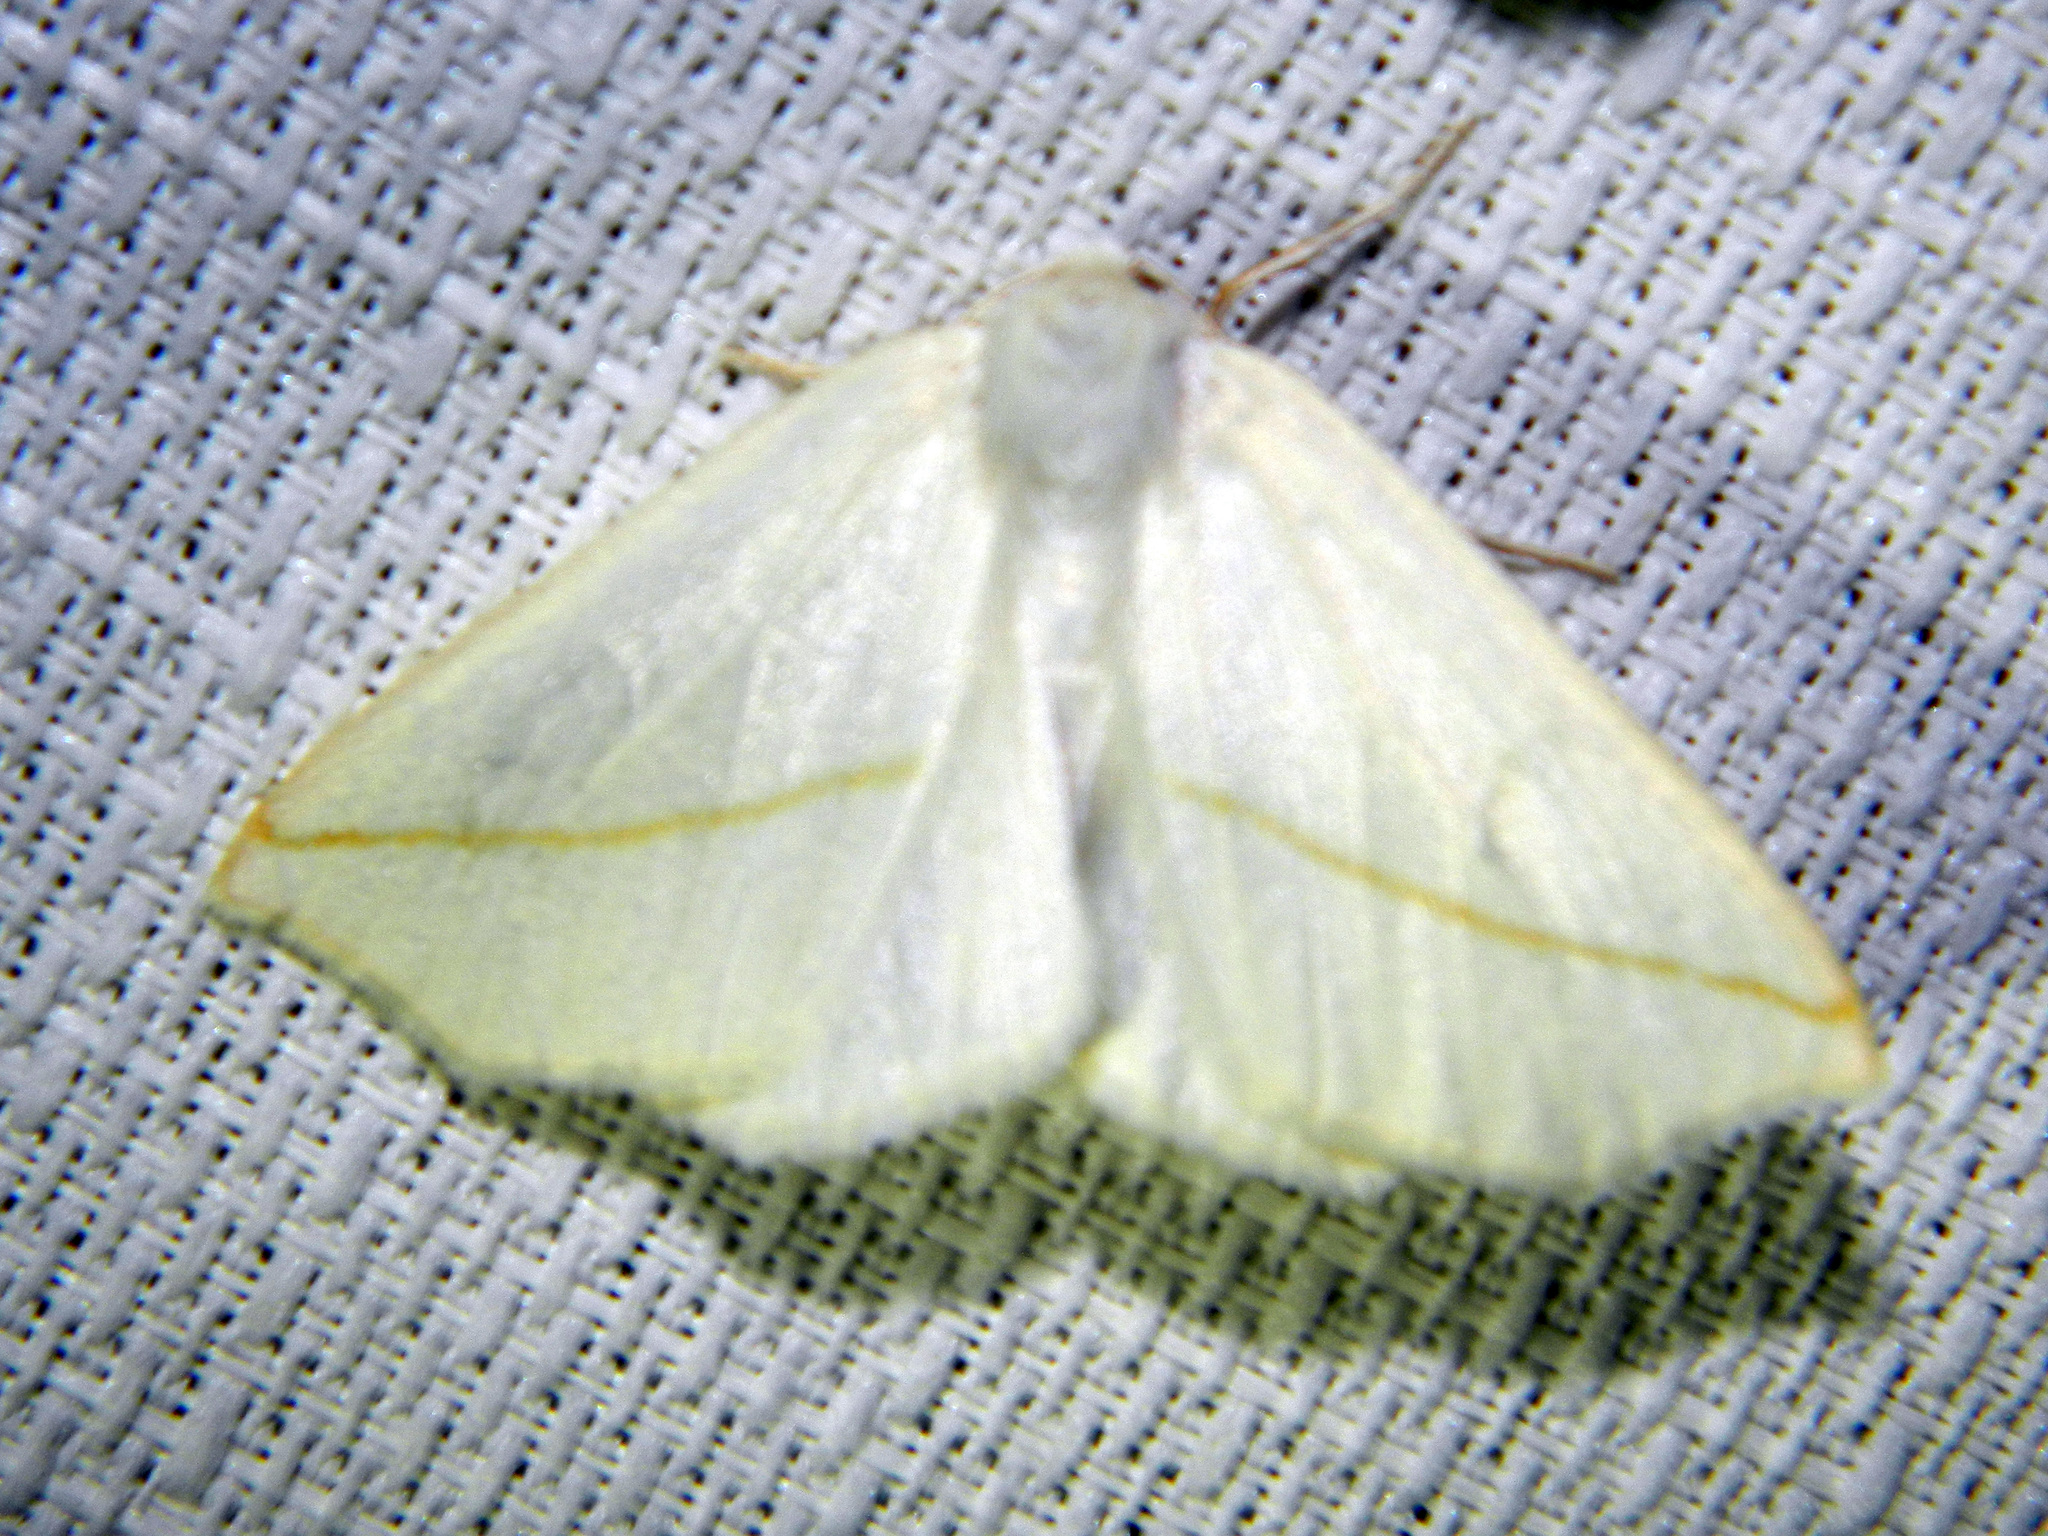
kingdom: Animalia
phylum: Arthropoda
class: Insecta
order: Lepidoptera
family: Geometridae
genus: Tetracis
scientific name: Tetracis cachexiata
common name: White slant-line
